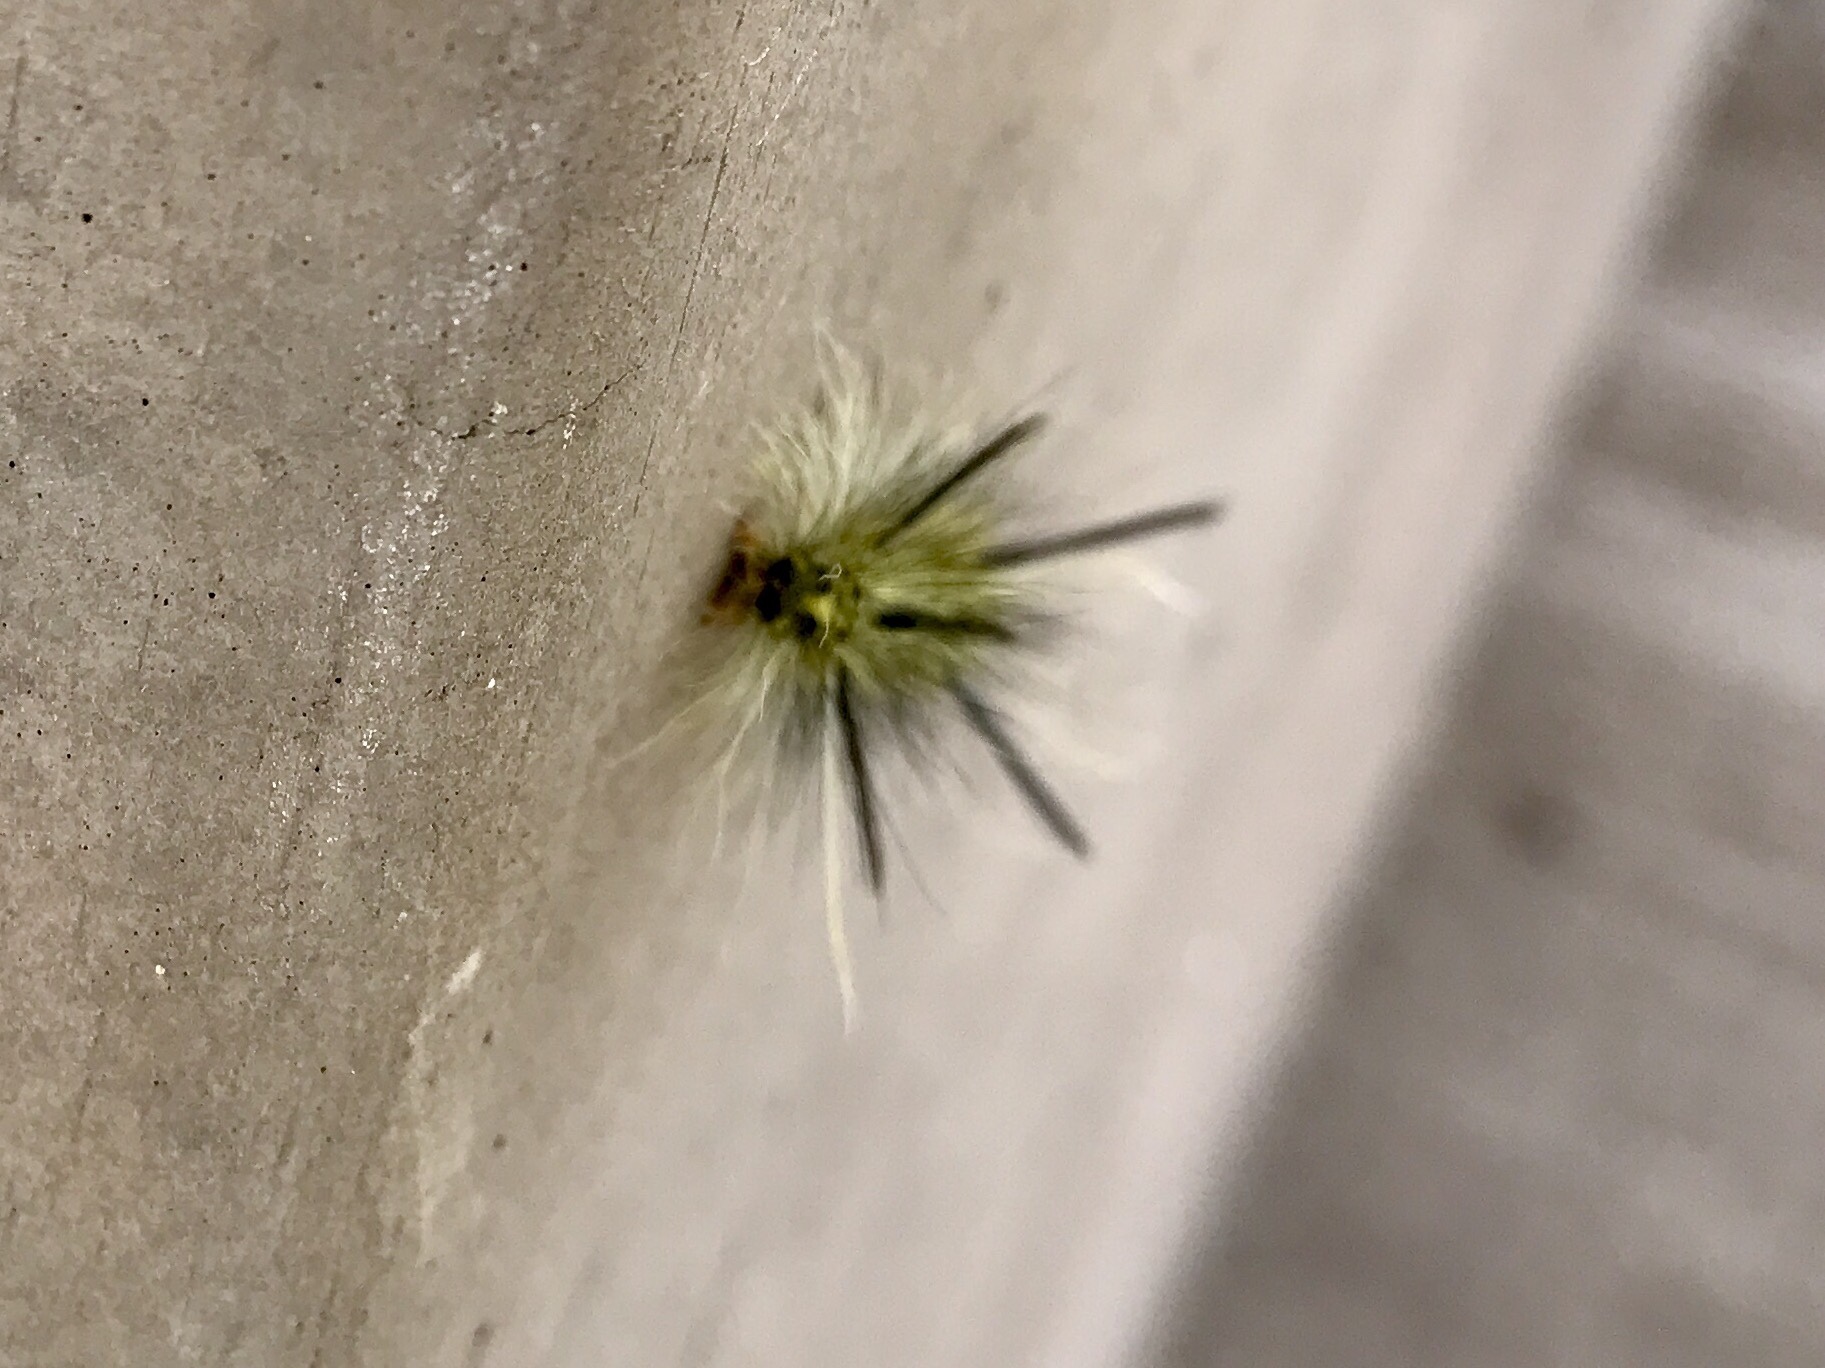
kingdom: Animalia
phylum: Arthropoda
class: Insecta
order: Lepidoptera
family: Erebidae
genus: Lophocampa
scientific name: Lophocampa mixta
